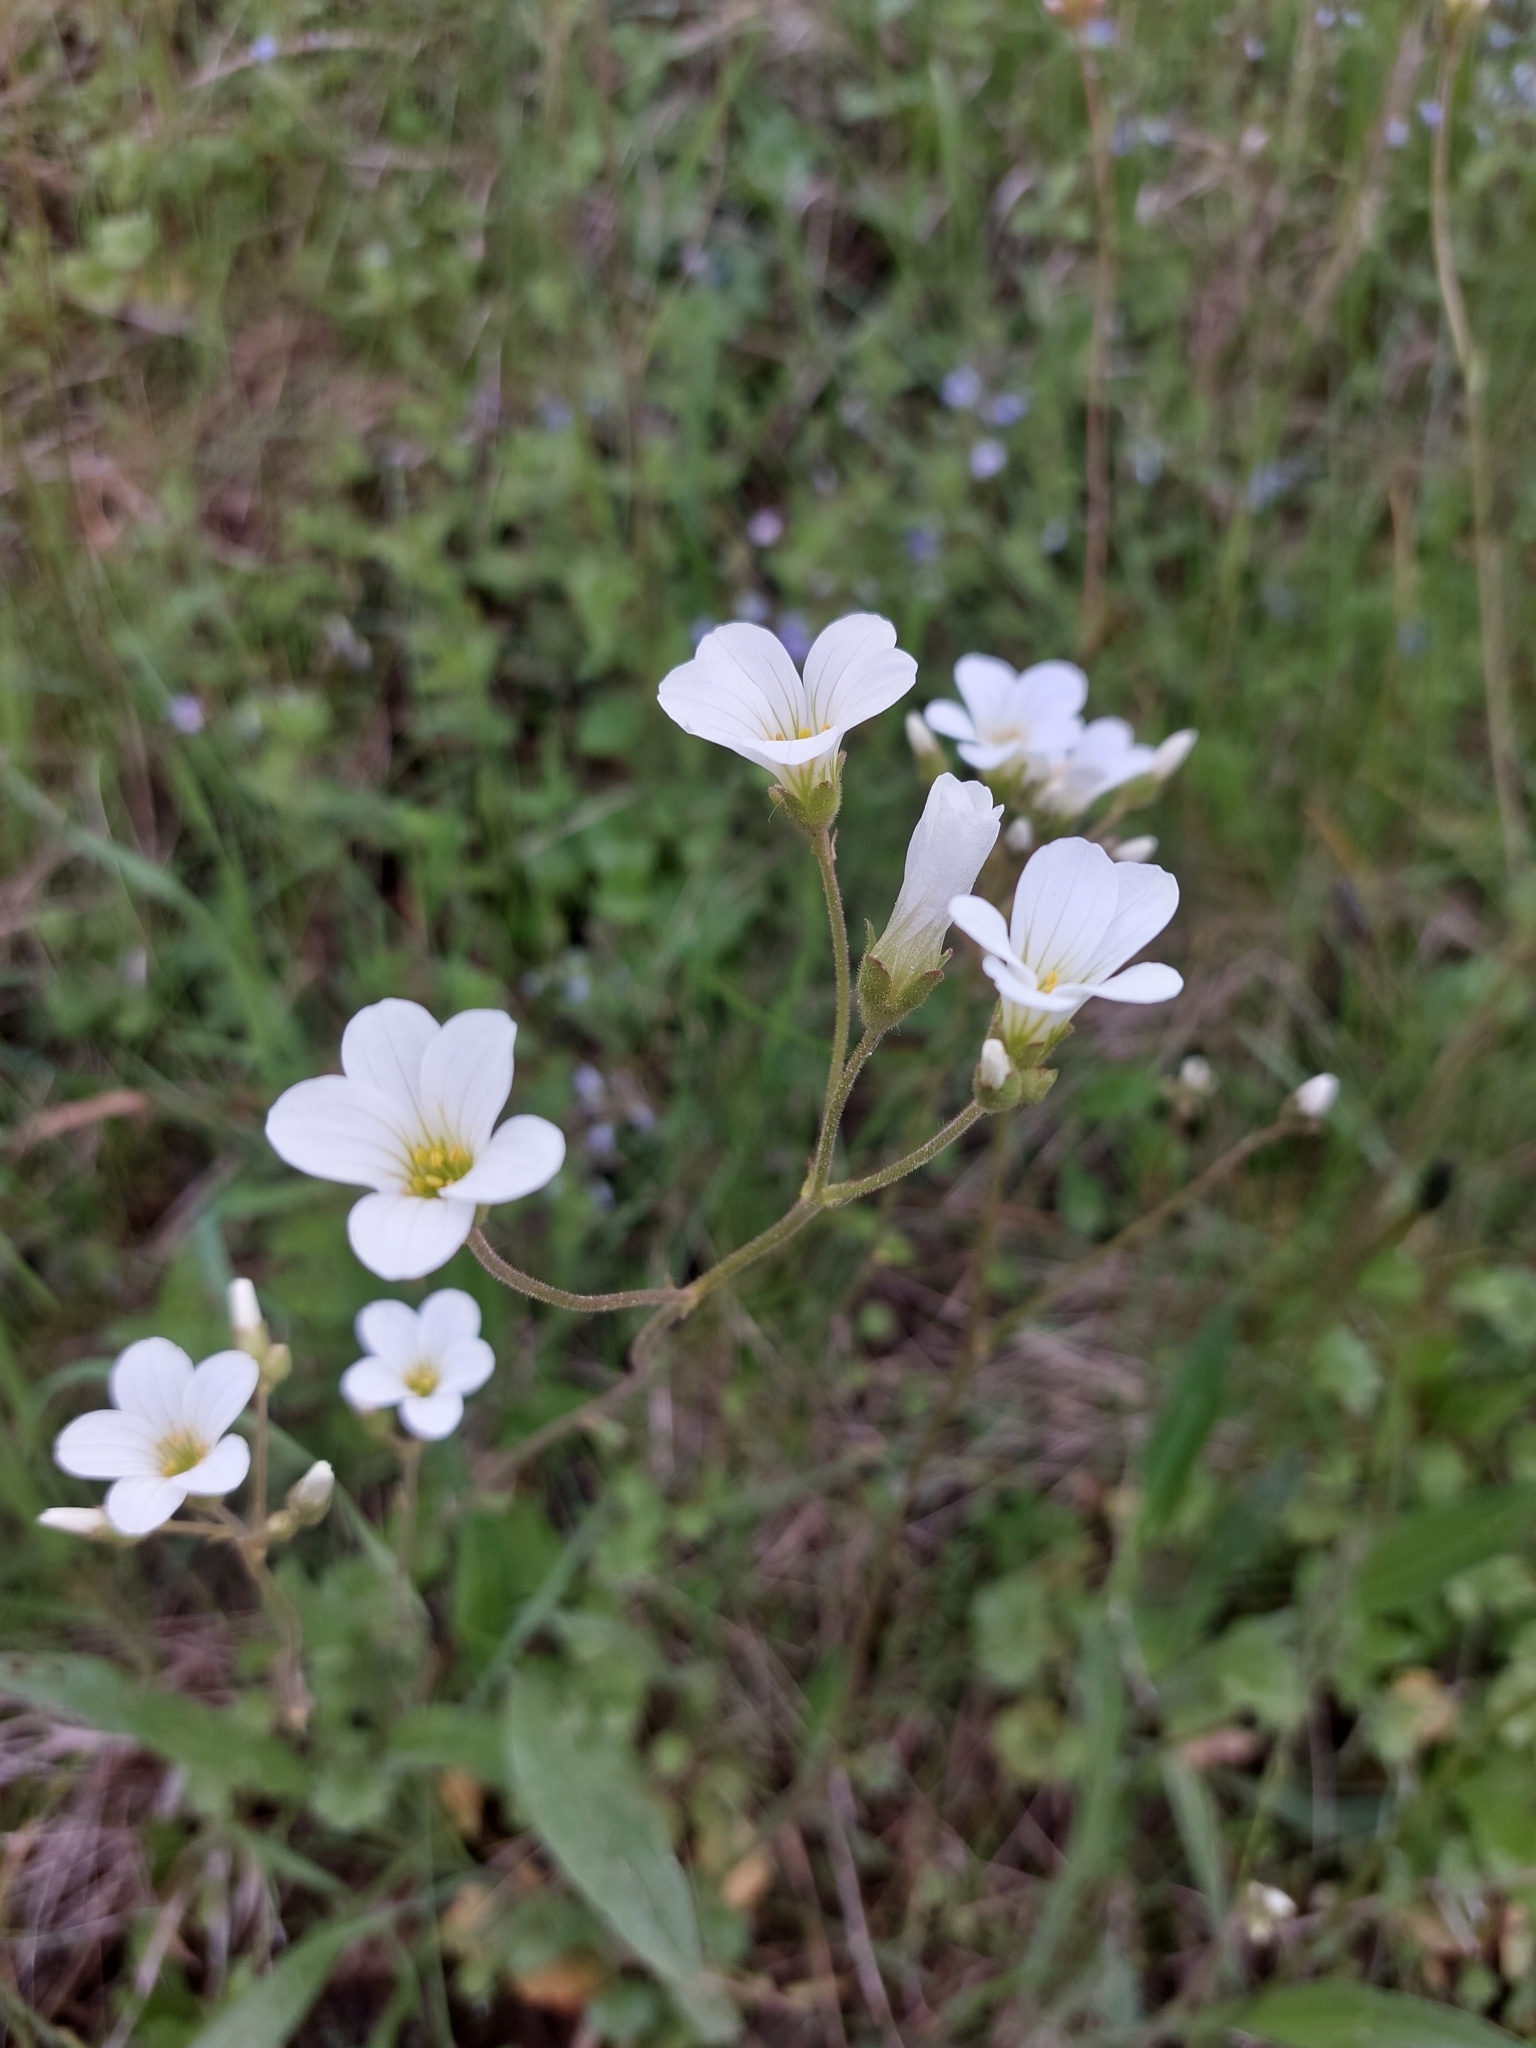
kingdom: Plantae
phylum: Tracheophyta
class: Magnoliopsida
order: Saxifragales
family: Saxifragaceae
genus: Saxifraga
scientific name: Saxifraga granulata
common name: Meadow saxifrage
